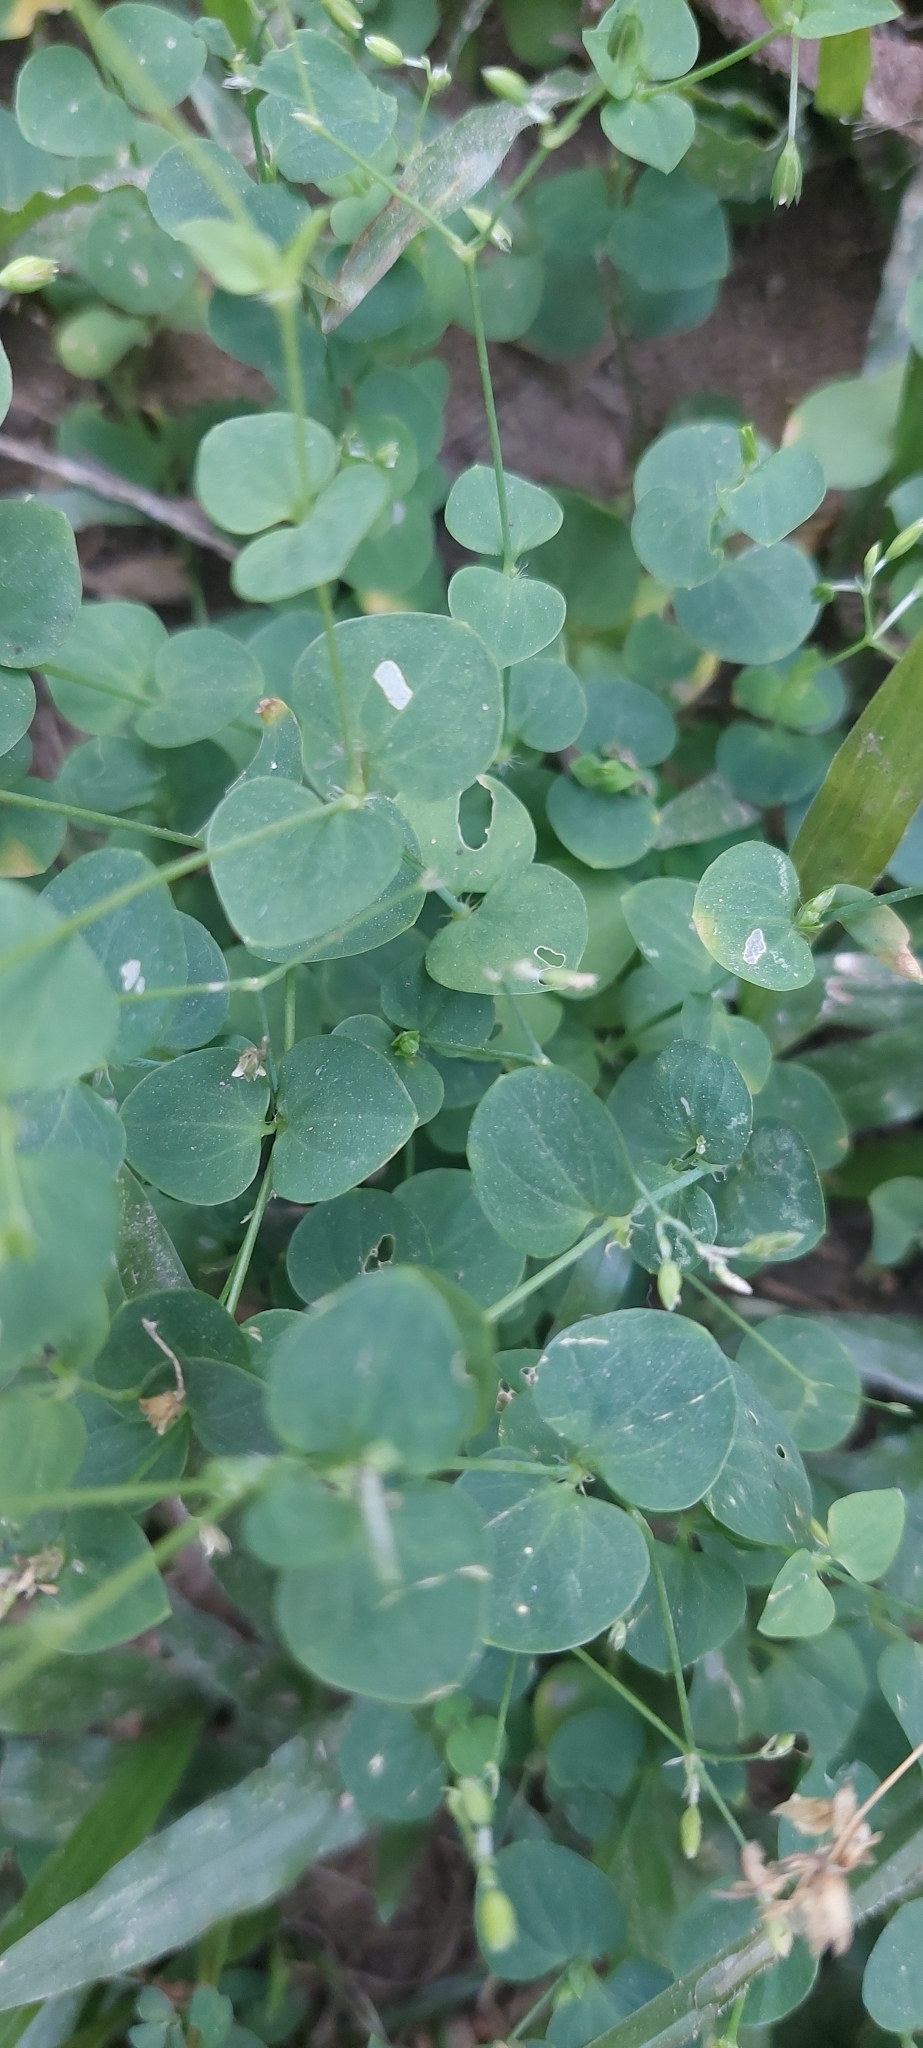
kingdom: Plantae
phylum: Tracheophyta
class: Magnoliopsida
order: Caryophyllales
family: Caryophyllaceae
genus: Drymaria
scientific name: Drymaria cordata
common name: Whitesnow
